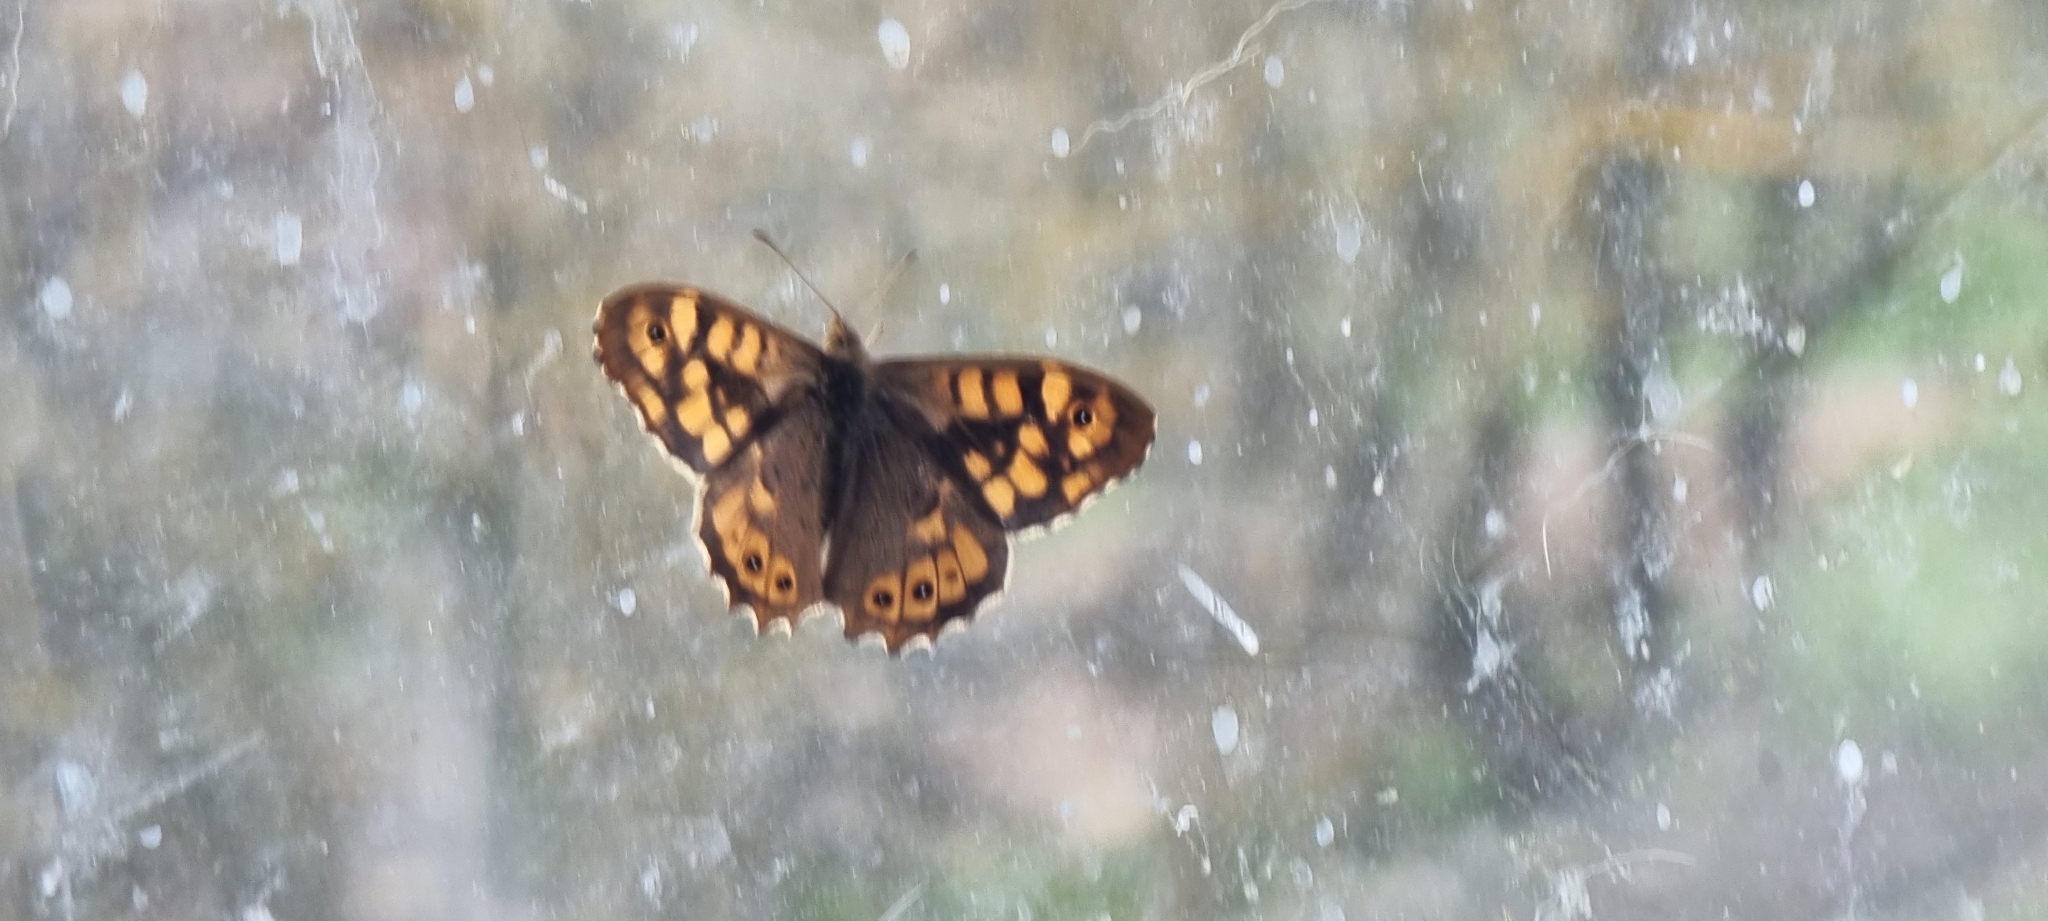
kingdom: Animalia
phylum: Arthropoda
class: Insecta
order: Lepidoptera
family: Nymphalidae
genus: Pararge
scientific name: Pararge aegeria
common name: Speckled wood
